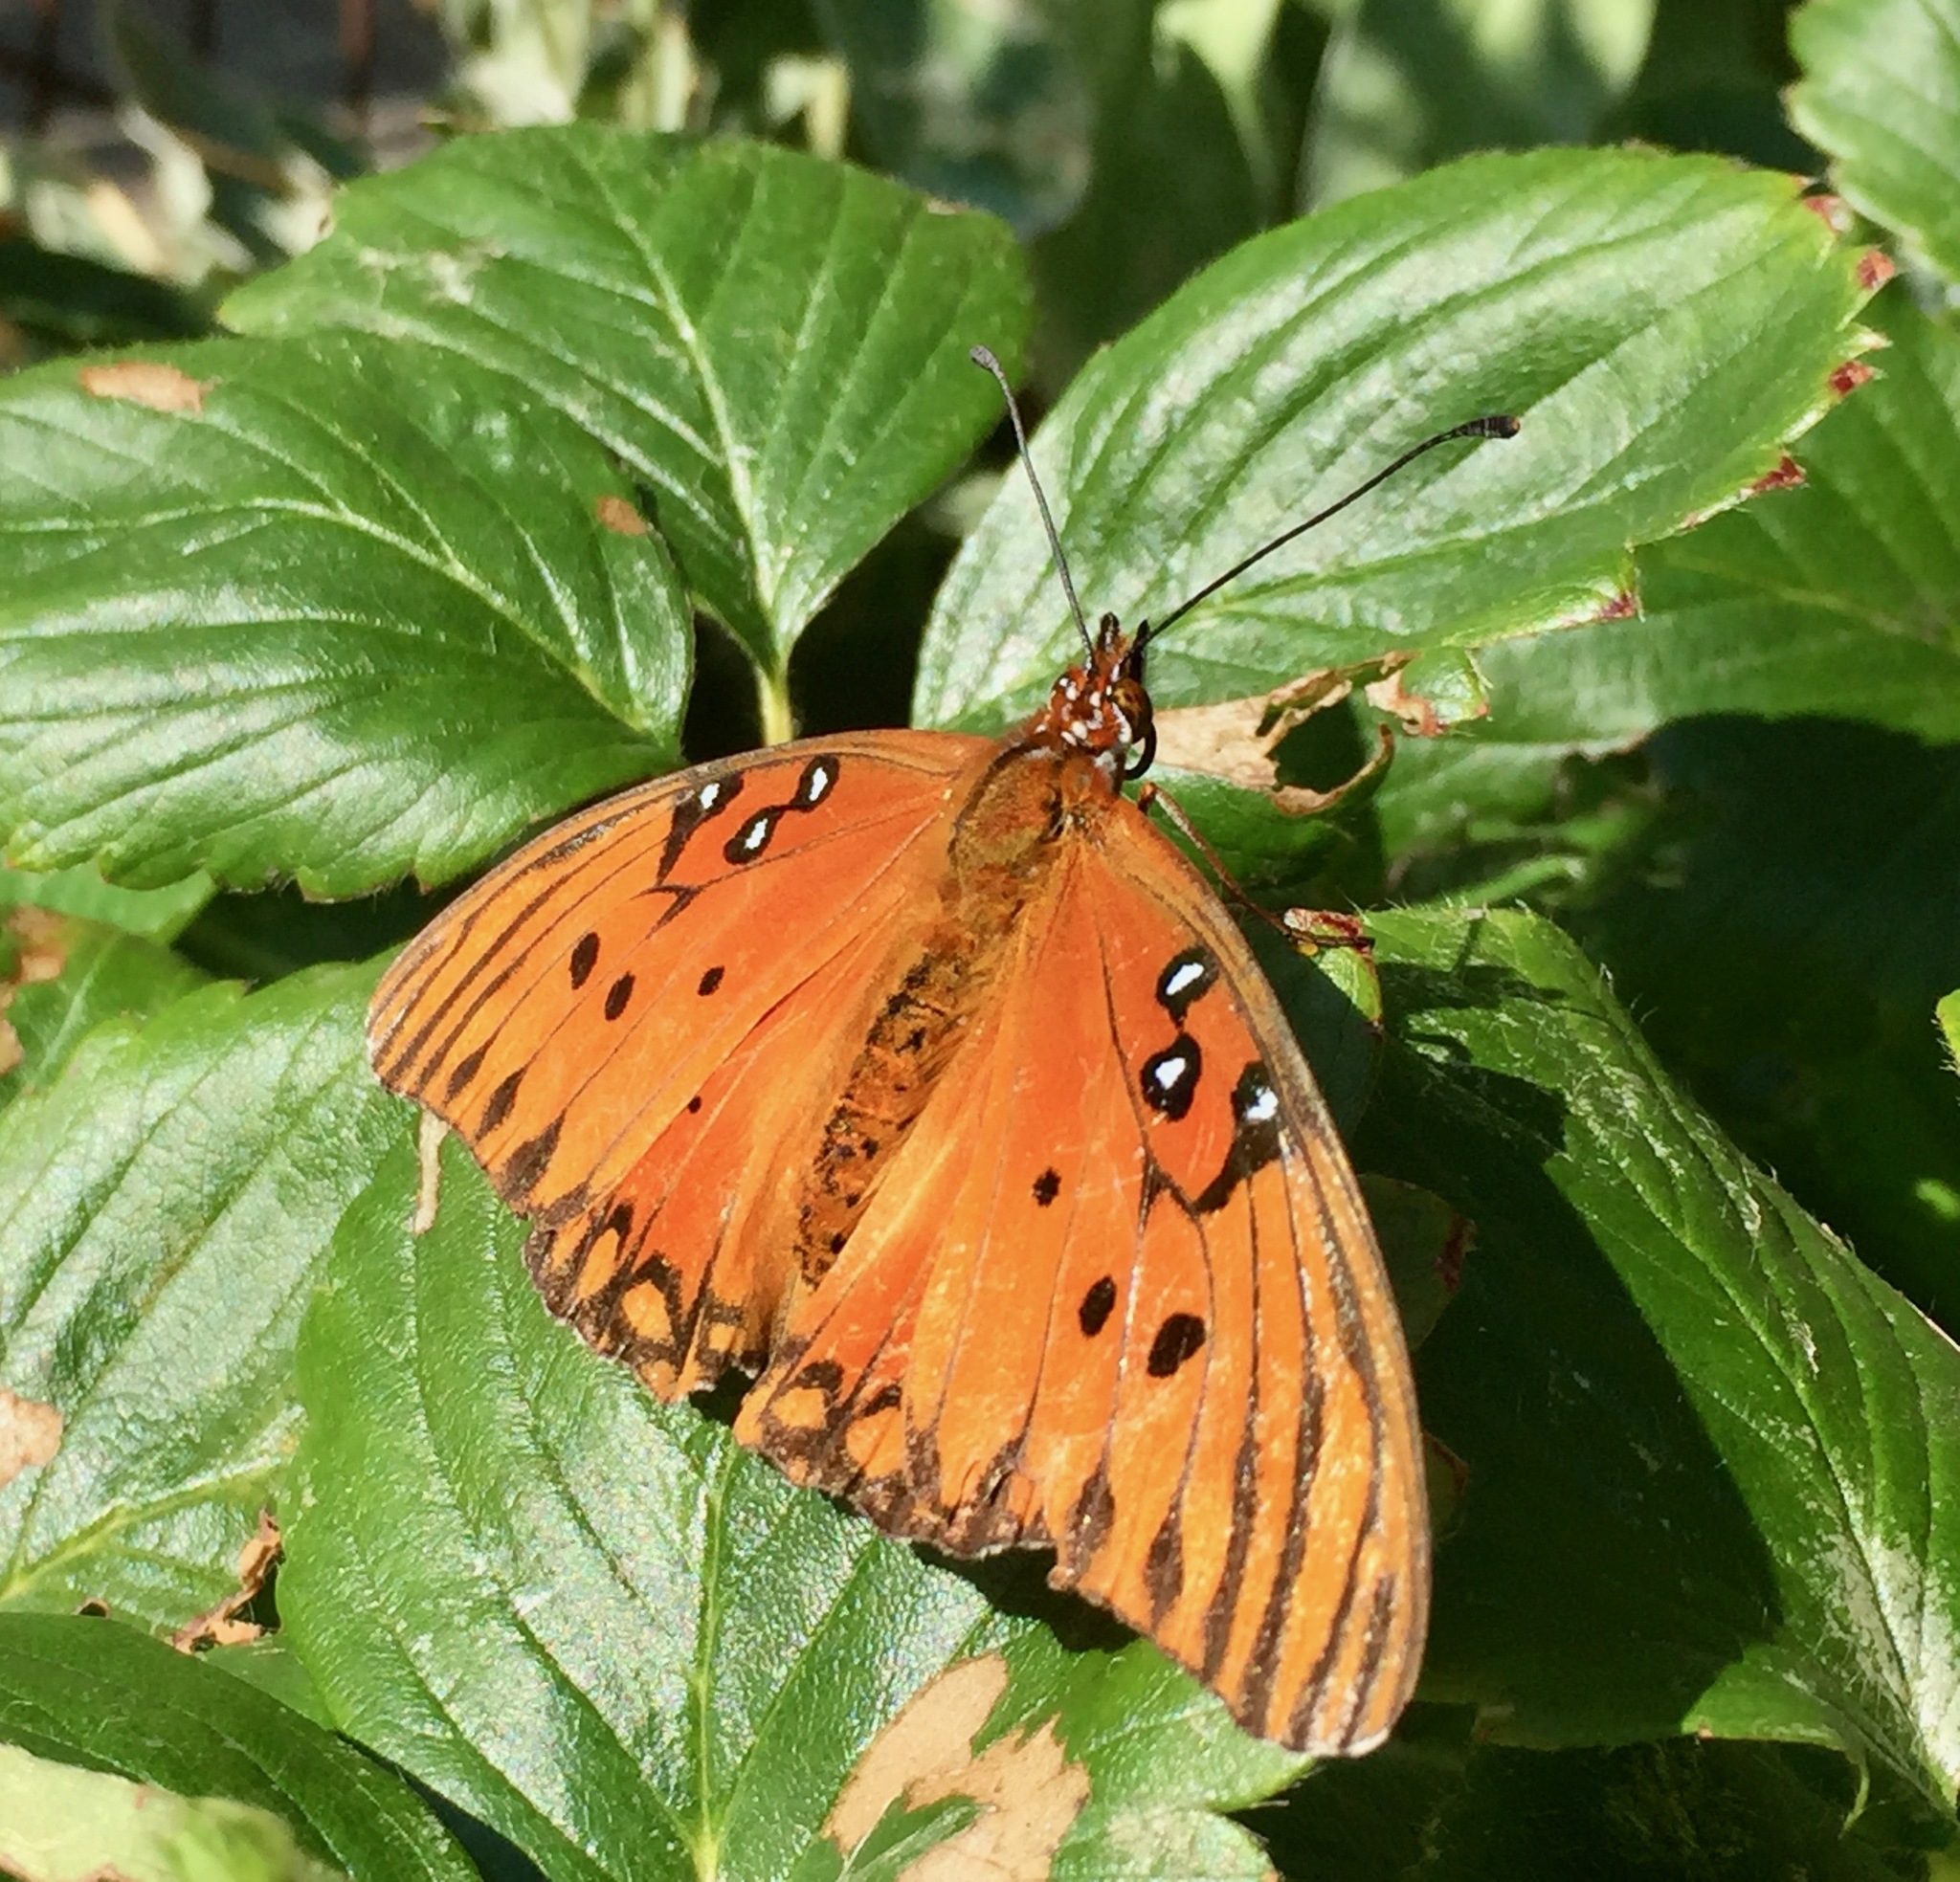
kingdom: Animalia
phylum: Arthropoda
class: Insecta
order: Lepidoptera
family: Nymphalidae
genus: Dione
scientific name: Dione vanillae
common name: Gulf fritillary
